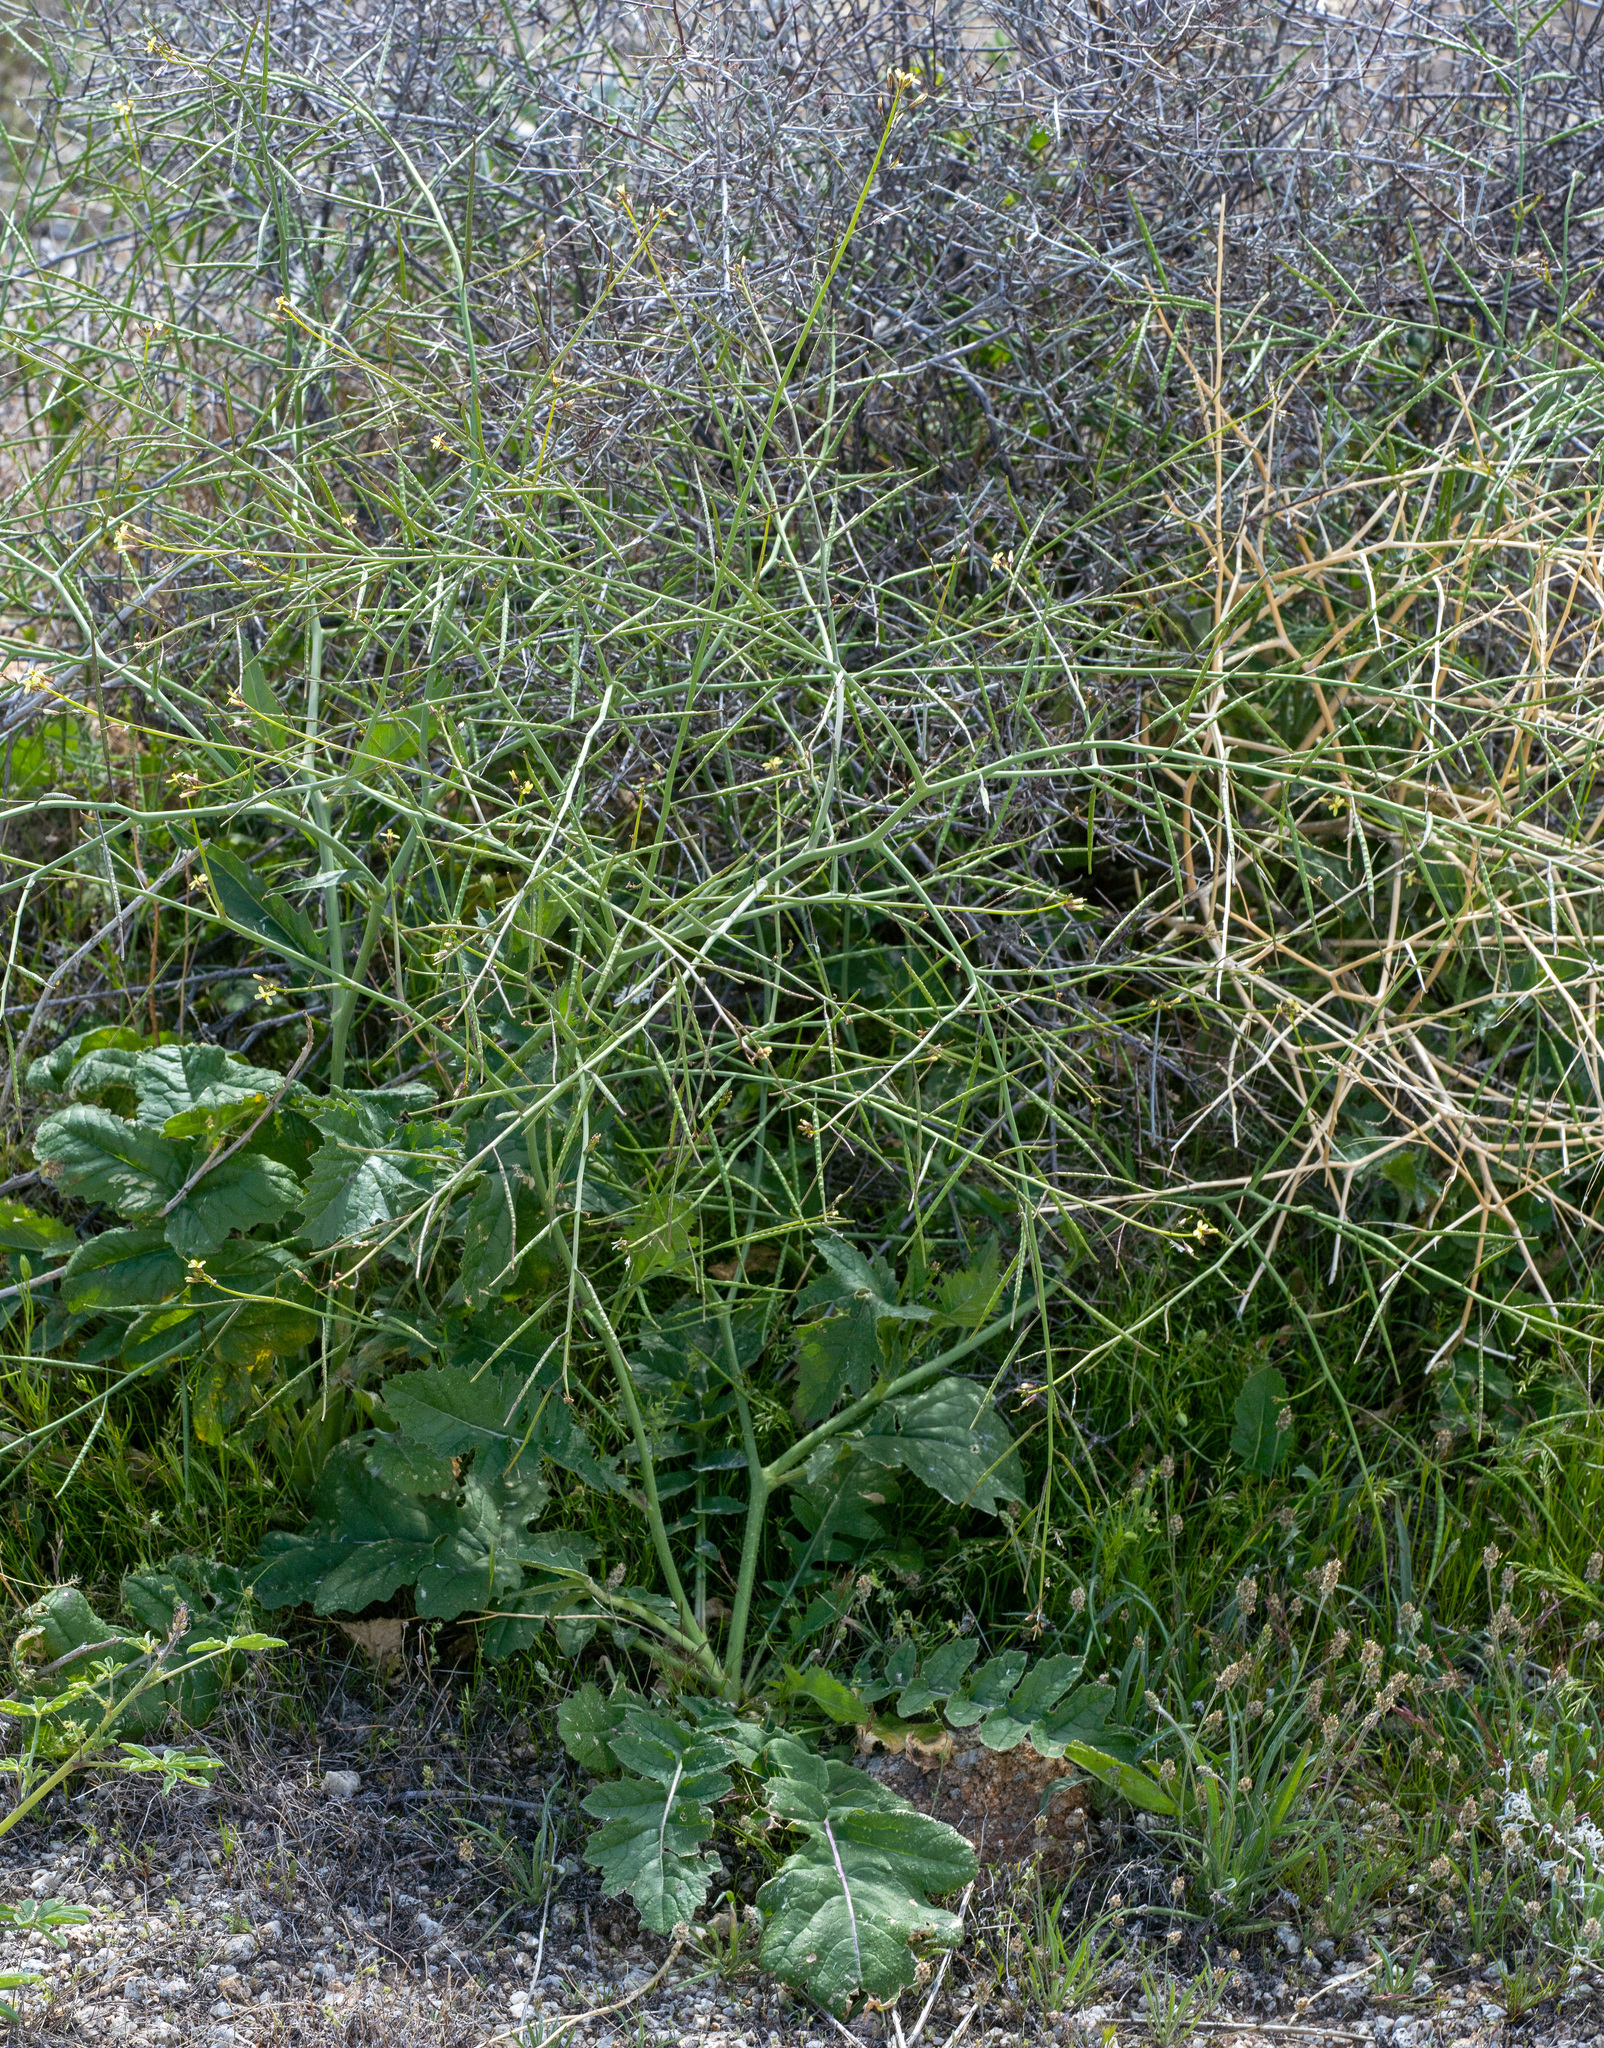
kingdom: Plantae
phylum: Tracheophyta
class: Magnoliopsida
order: Brassicales
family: Brassicaceae
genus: Brassica
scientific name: Brassica tournefortii
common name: Pale cabbage
